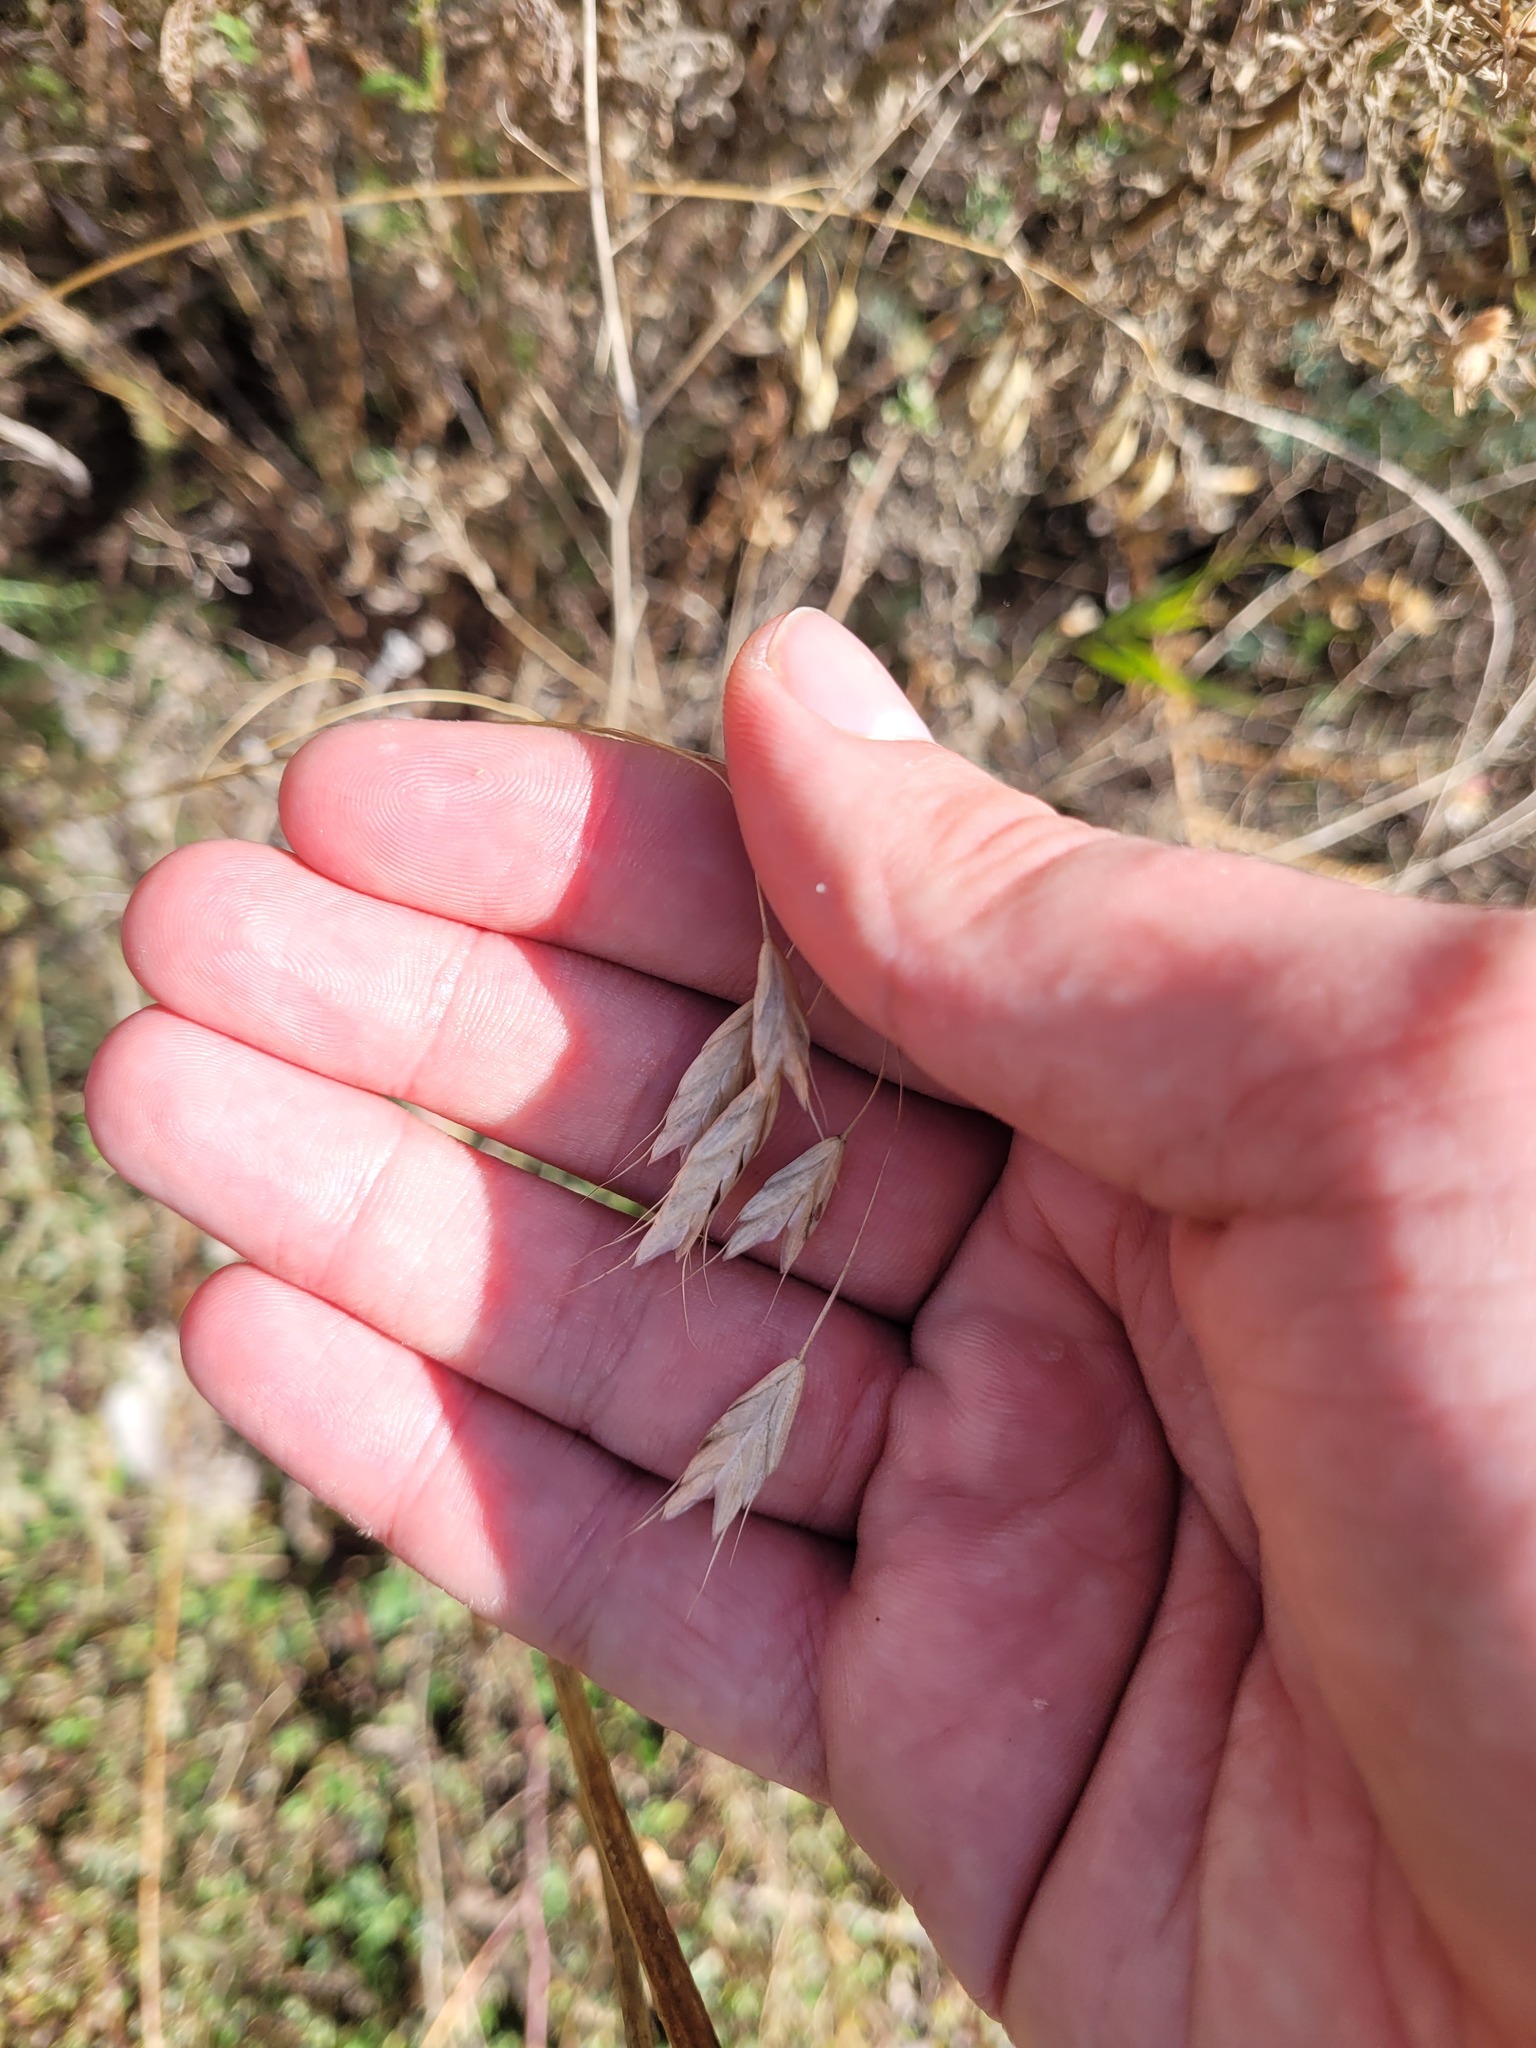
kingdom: Plantae
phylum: Tracheophyta
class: Liliopsida
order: Poales
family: Poaceae
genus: Bromus
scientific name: Bromus squarrosus
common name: Corn brome
